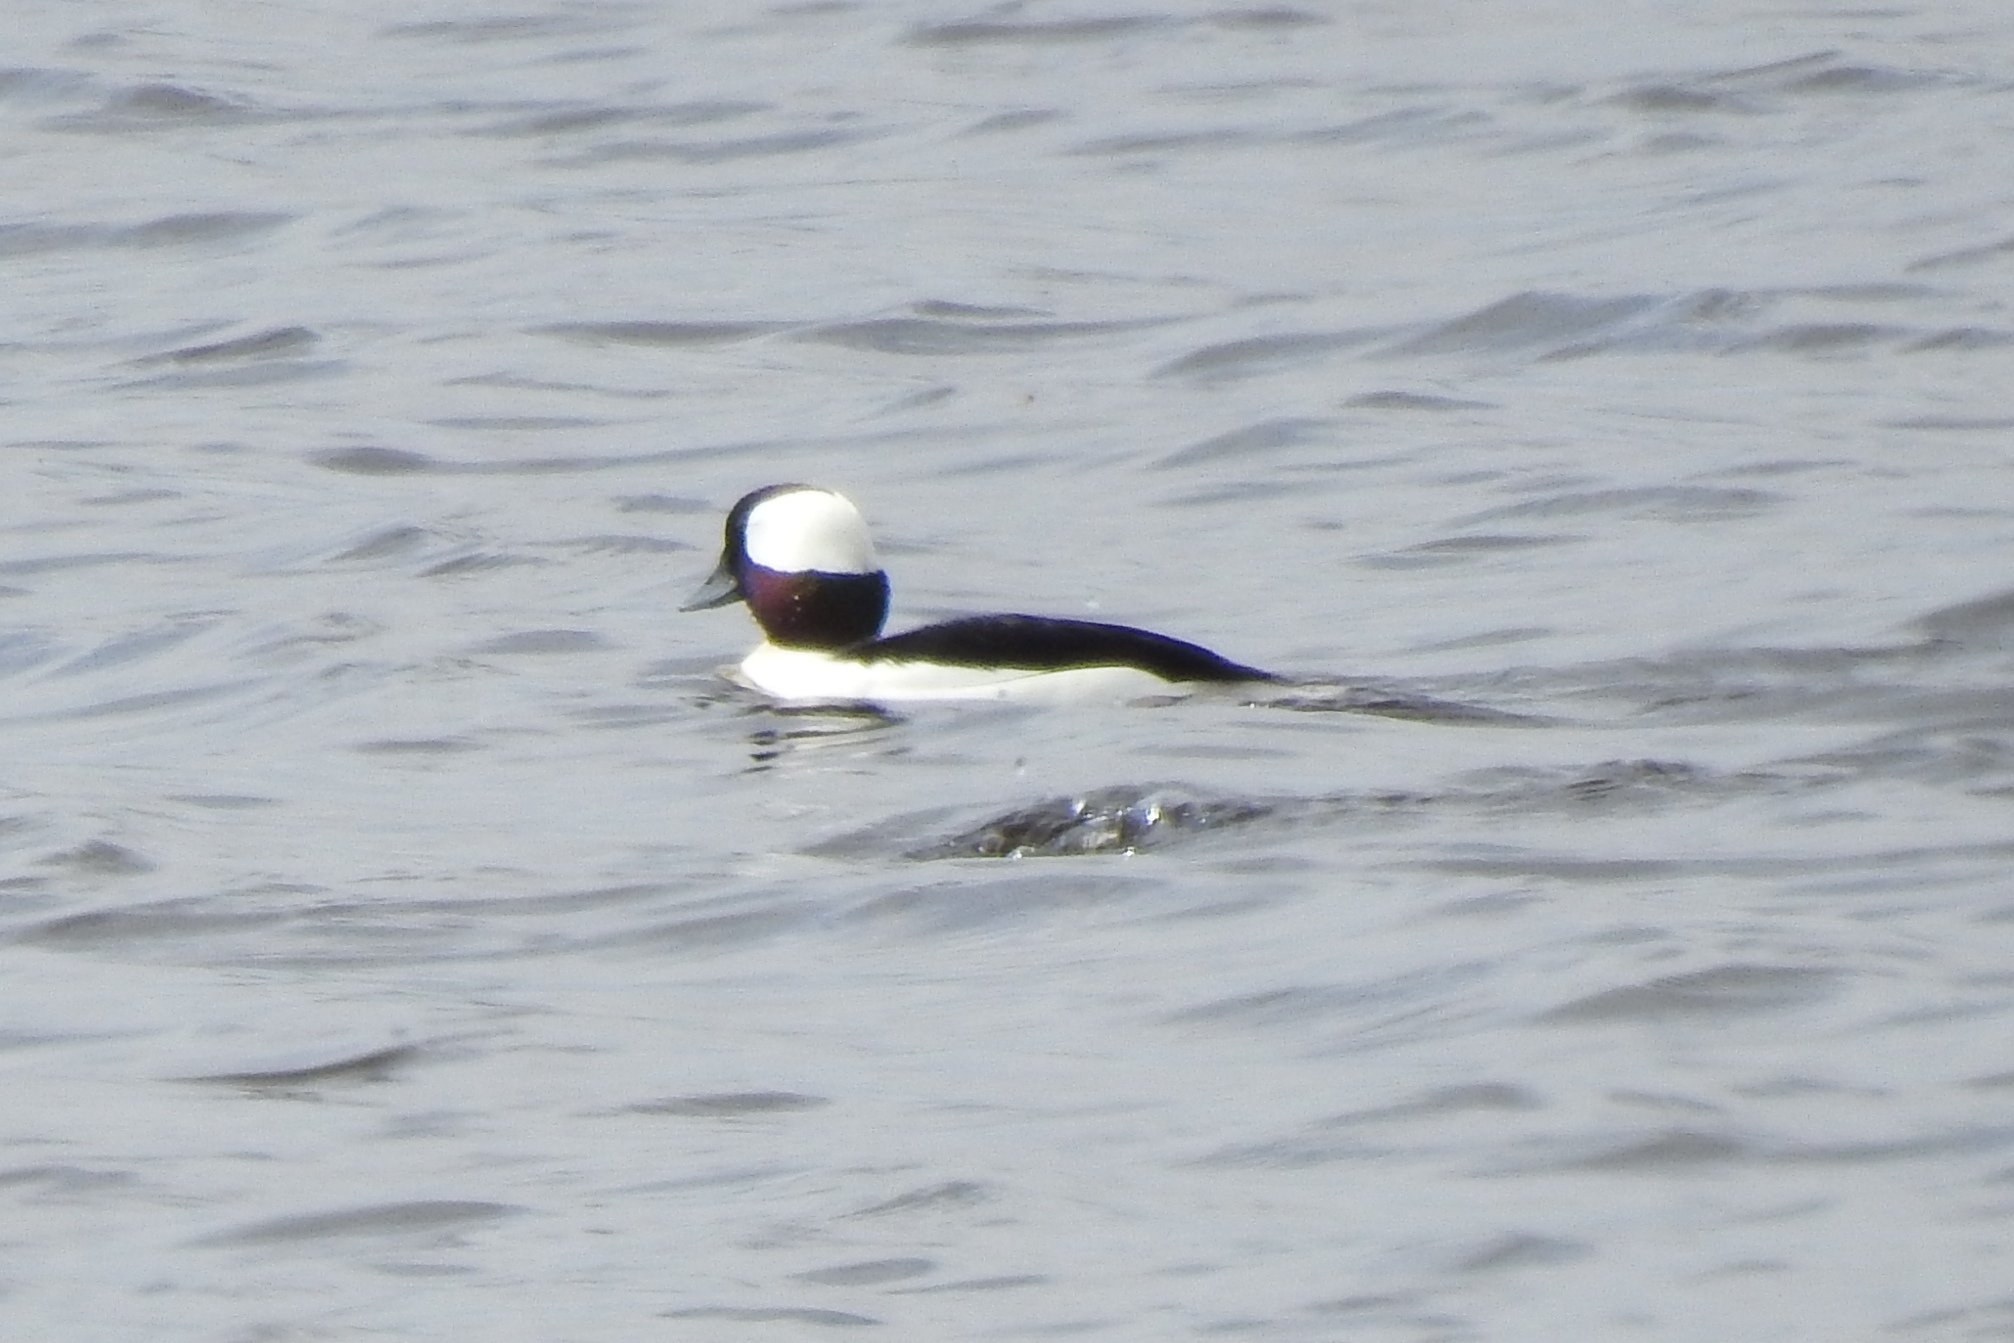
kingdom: Animalia
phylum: Chordata
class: Aves
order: Anseriformes
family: Anatidae
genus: Bucephala
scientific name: Bucephala albeola
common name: Bufflehead
